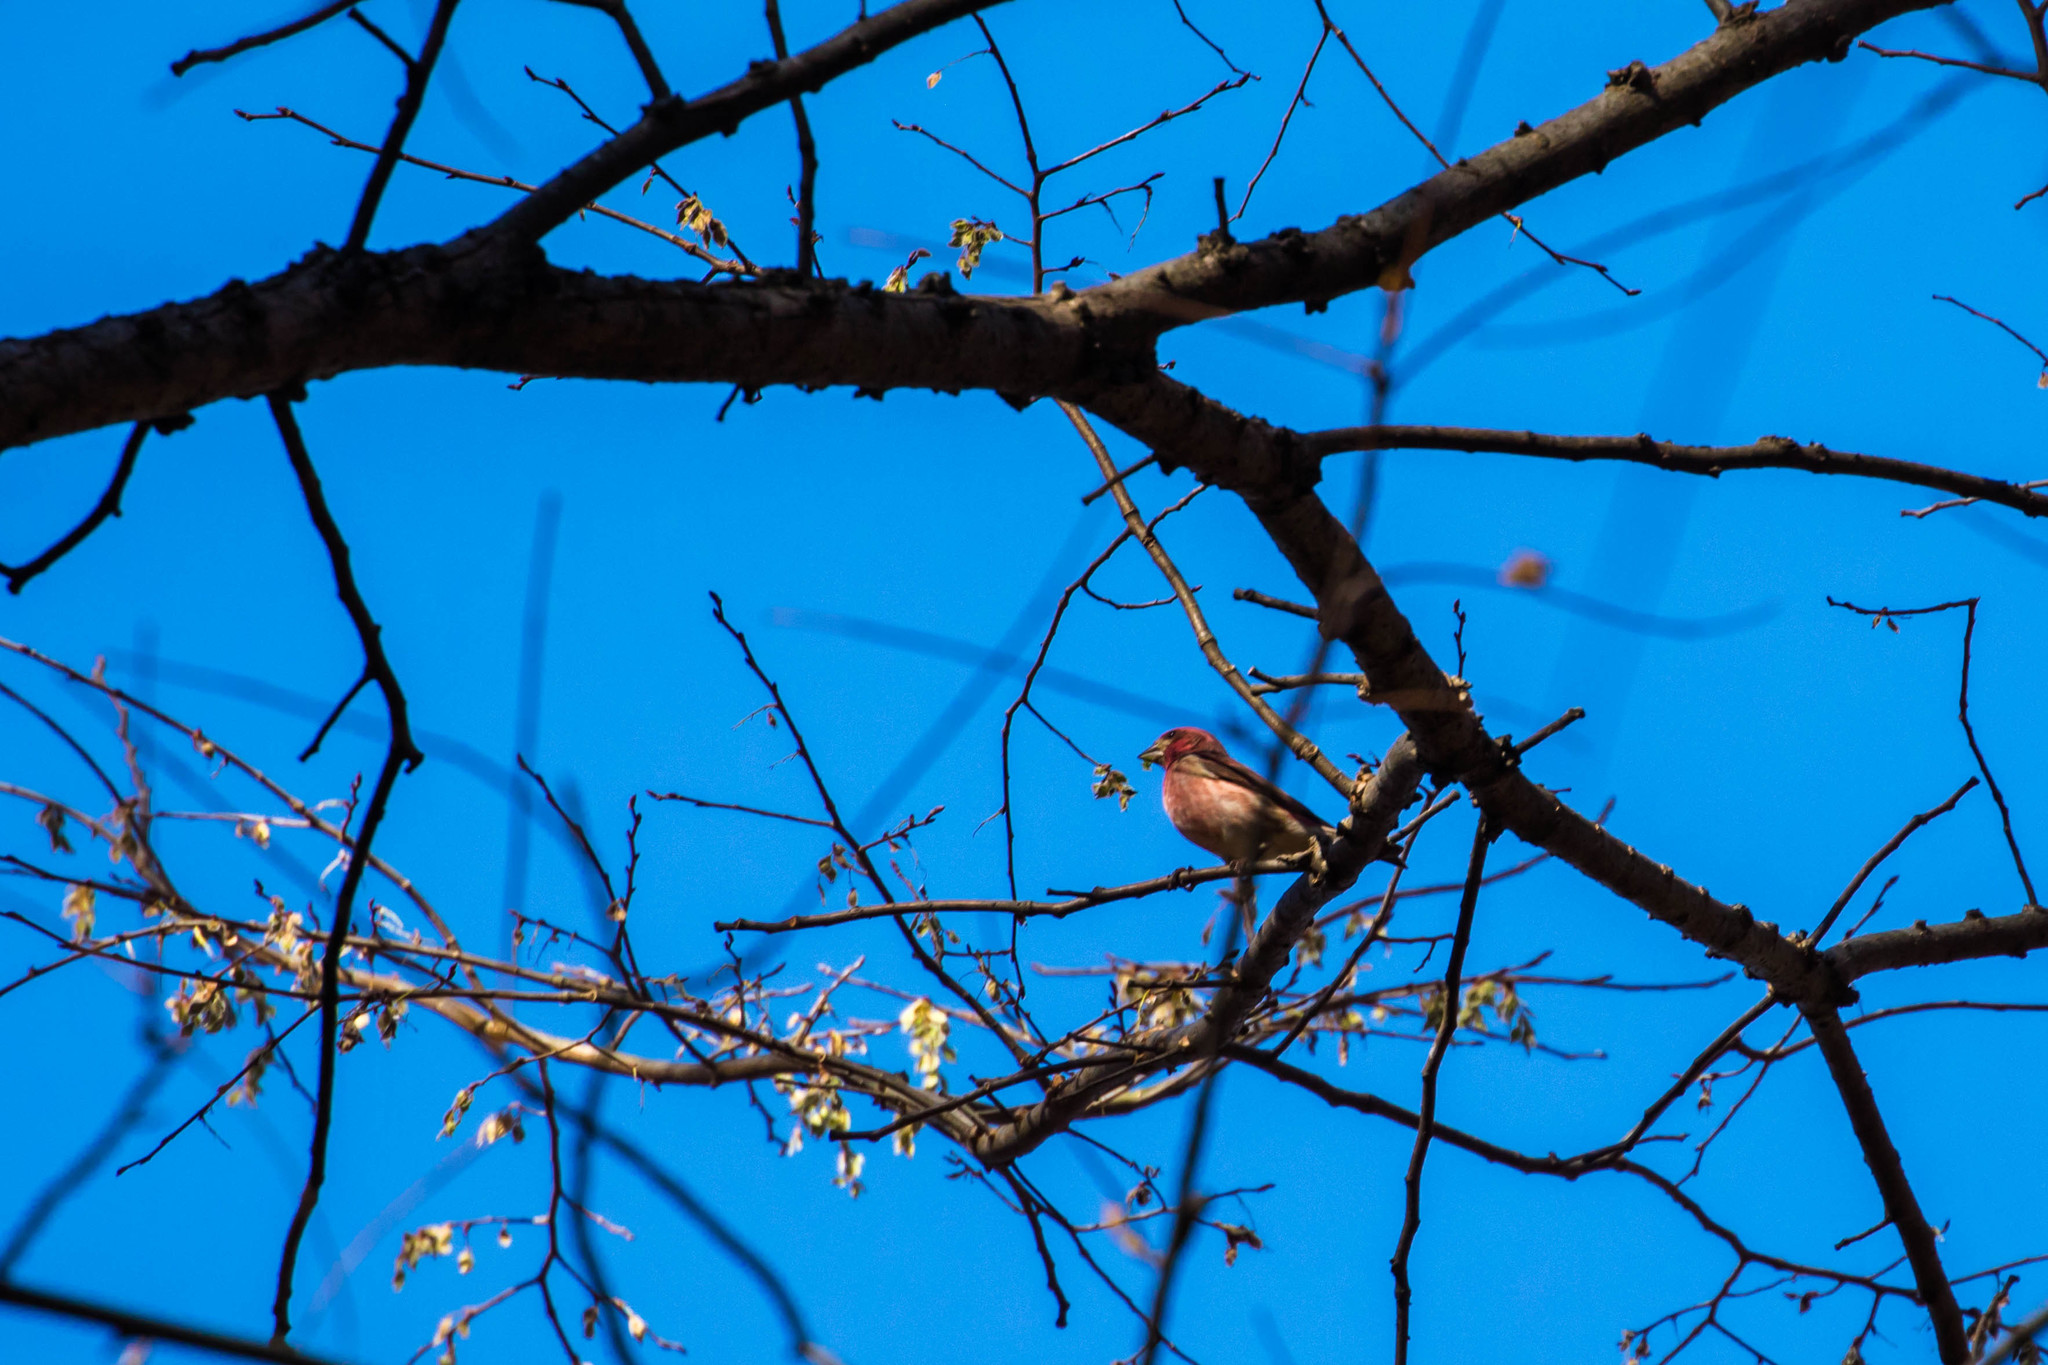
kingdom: Animalia
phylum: Chordata
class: Aves
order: Passeriformes
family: Fringillidae
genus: Haemorhous
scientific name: Haemorhous purpureus
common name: Purple finch
